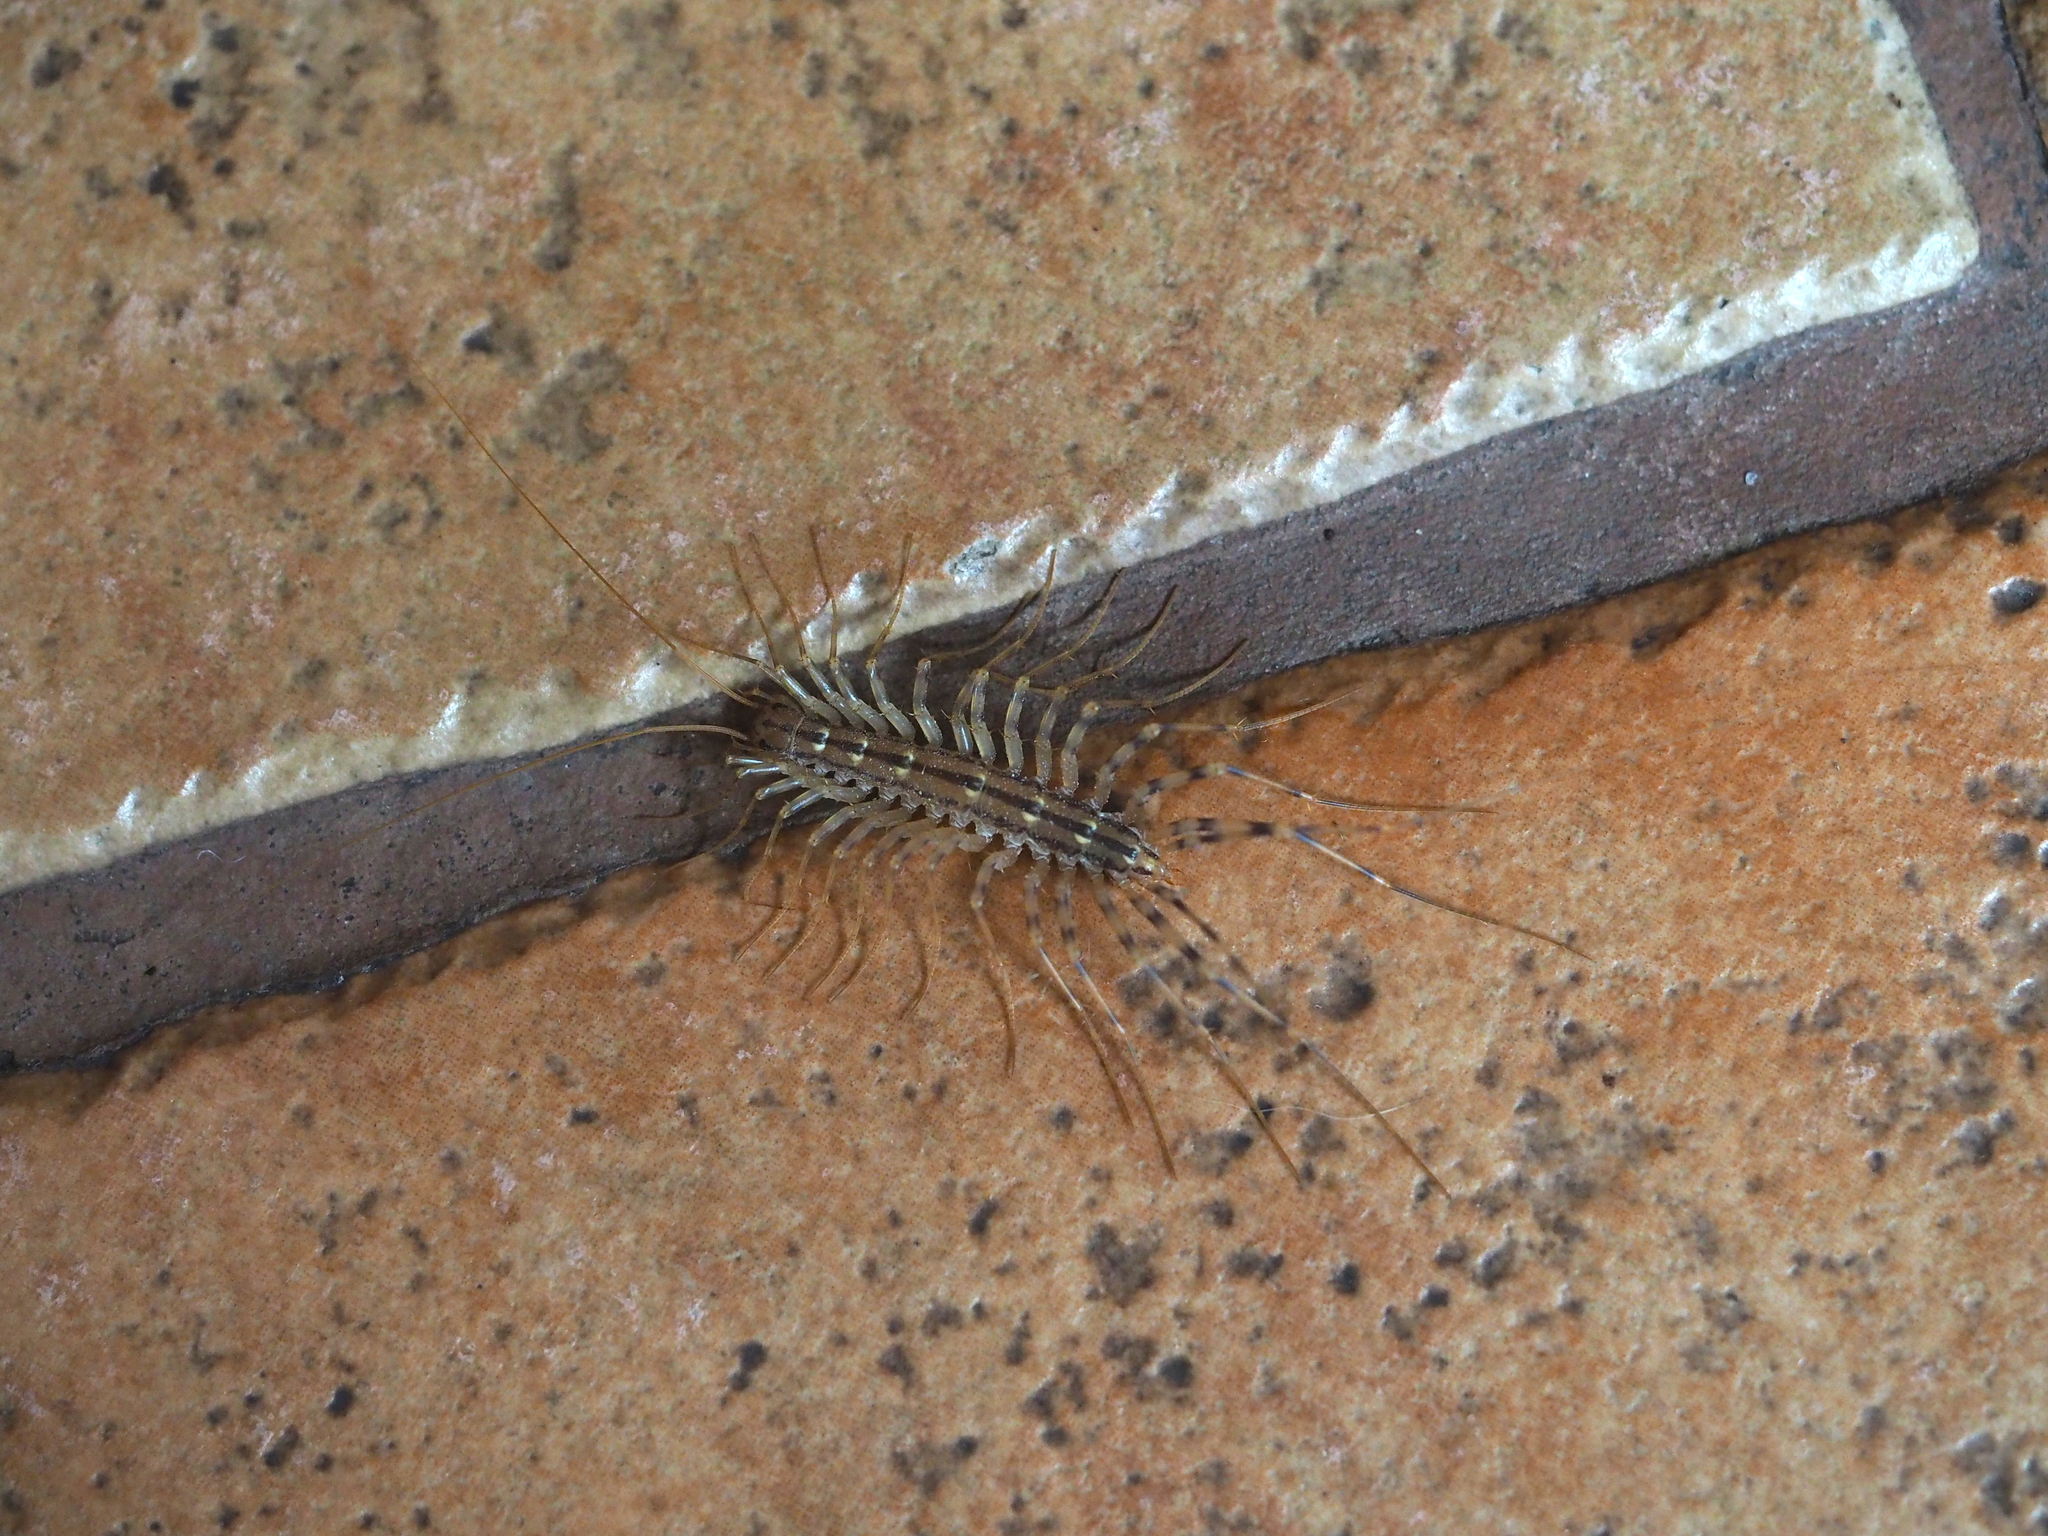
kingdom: Animalia
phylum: Arthropoda
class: Chilopoda
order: Scutigeromorpha
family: Scutigeridae
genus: Scutigera
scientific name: Scutigera coleoptrata
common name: House centipede
